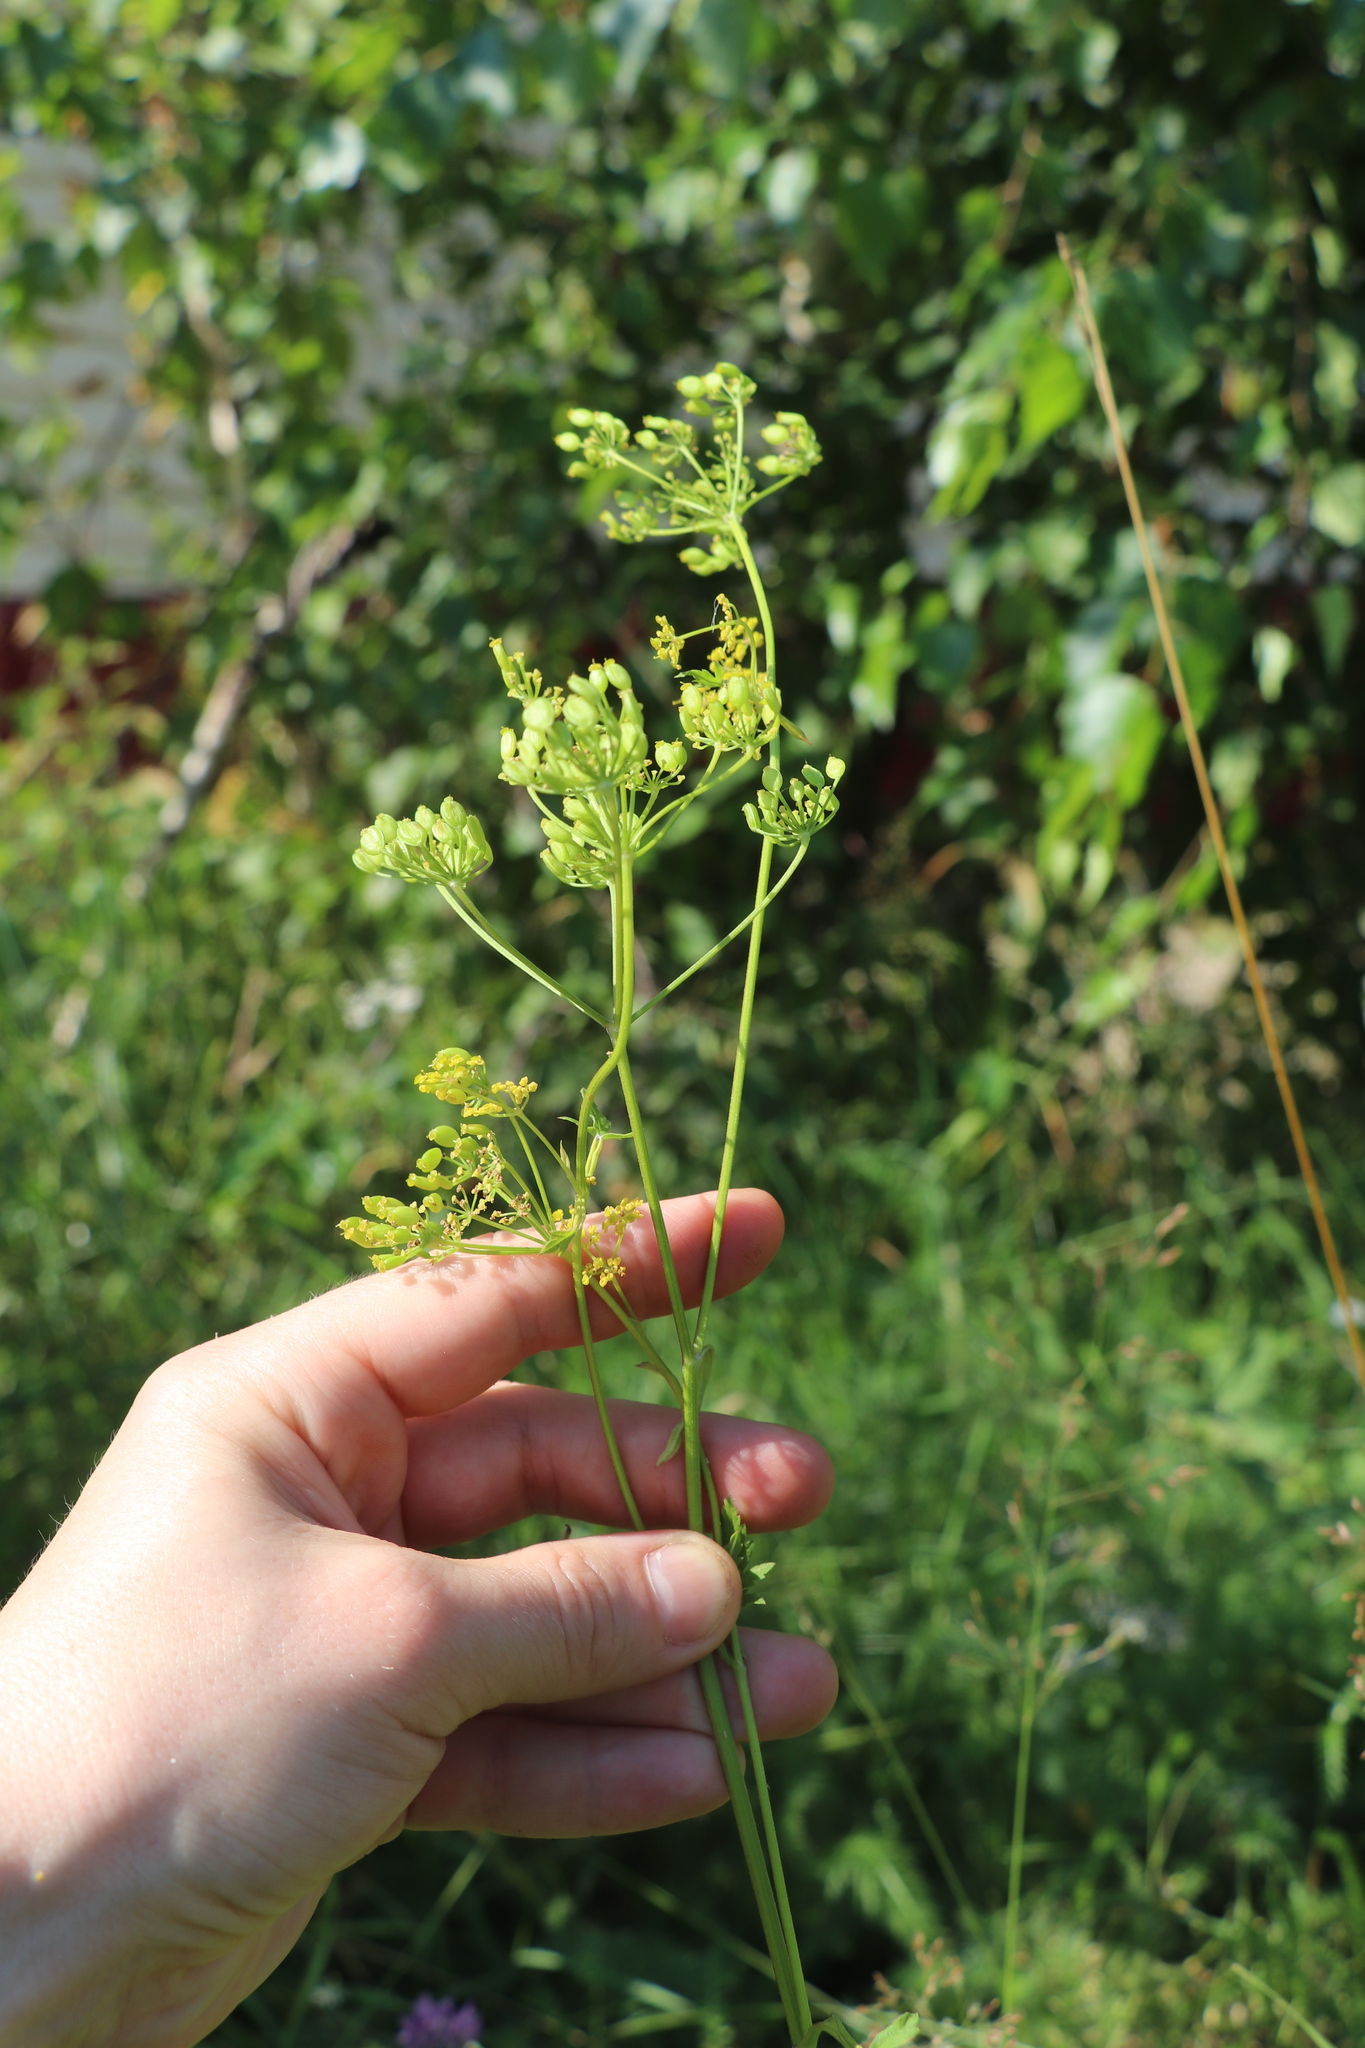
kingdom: Plantae
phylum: Tracheophyta
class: Magnoliopsida
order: Apiales
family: Apiaceae
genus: Pastinaca
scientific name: Pastinaca sativa
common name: Wild parsnip
